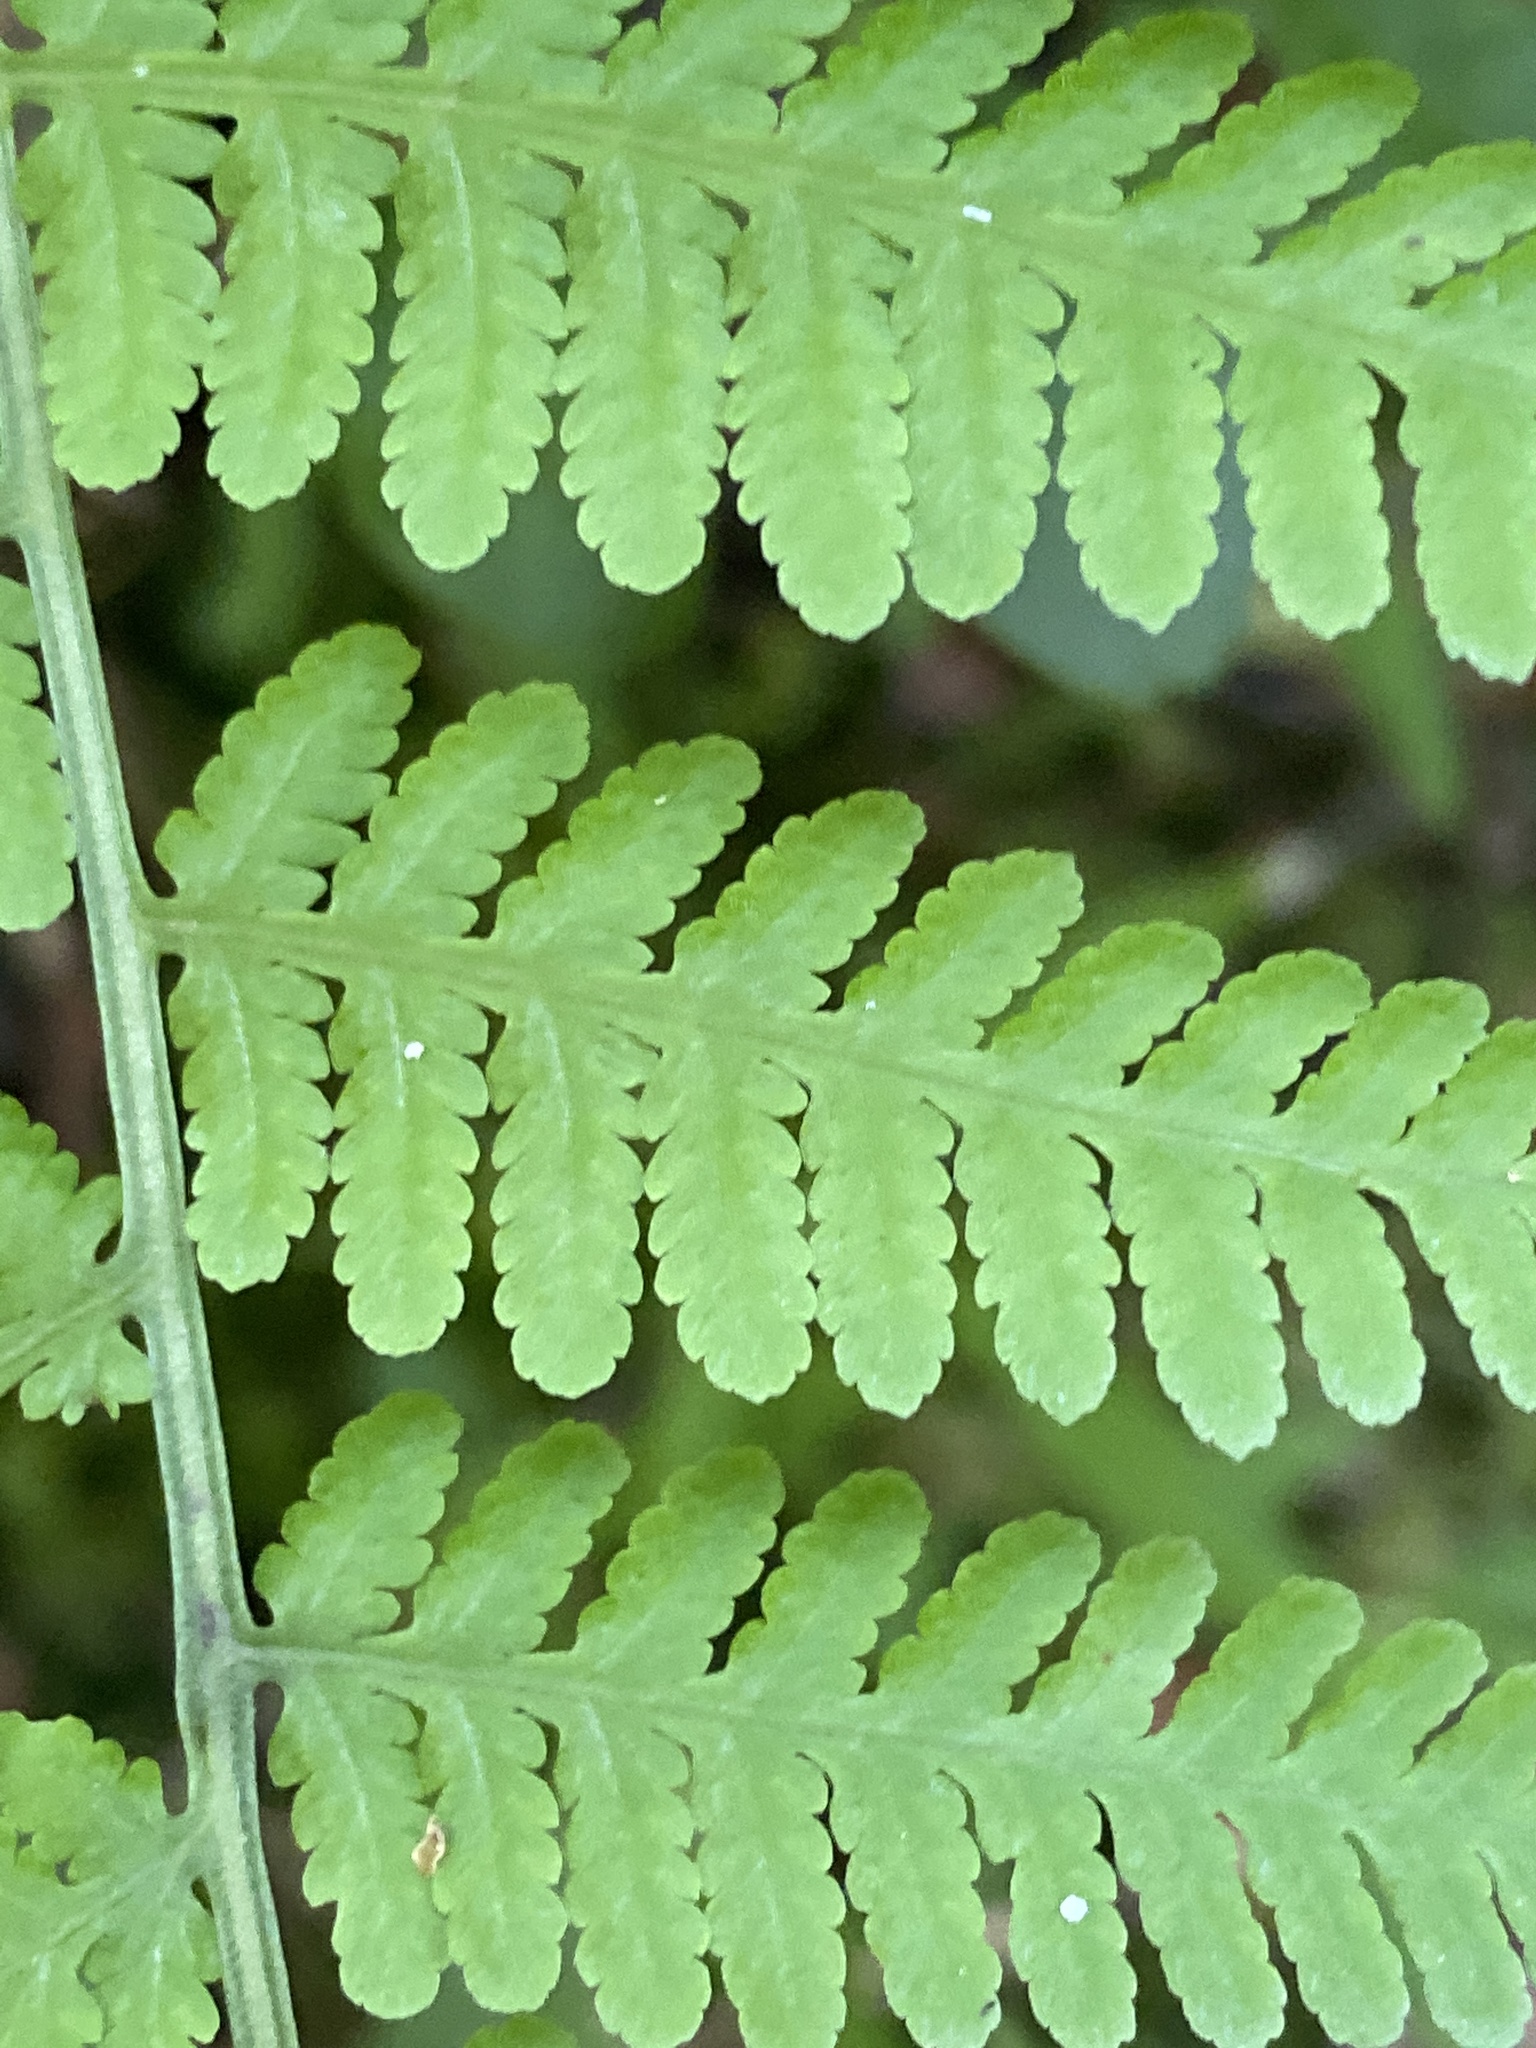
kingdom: Plantae
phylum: Tracheophyta
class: Polypodiopsida
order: Polypodiales
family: Thelypteridaceae
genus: Macrothelypteris
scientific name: Macrothelypteris torresiana
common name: Swordfern
